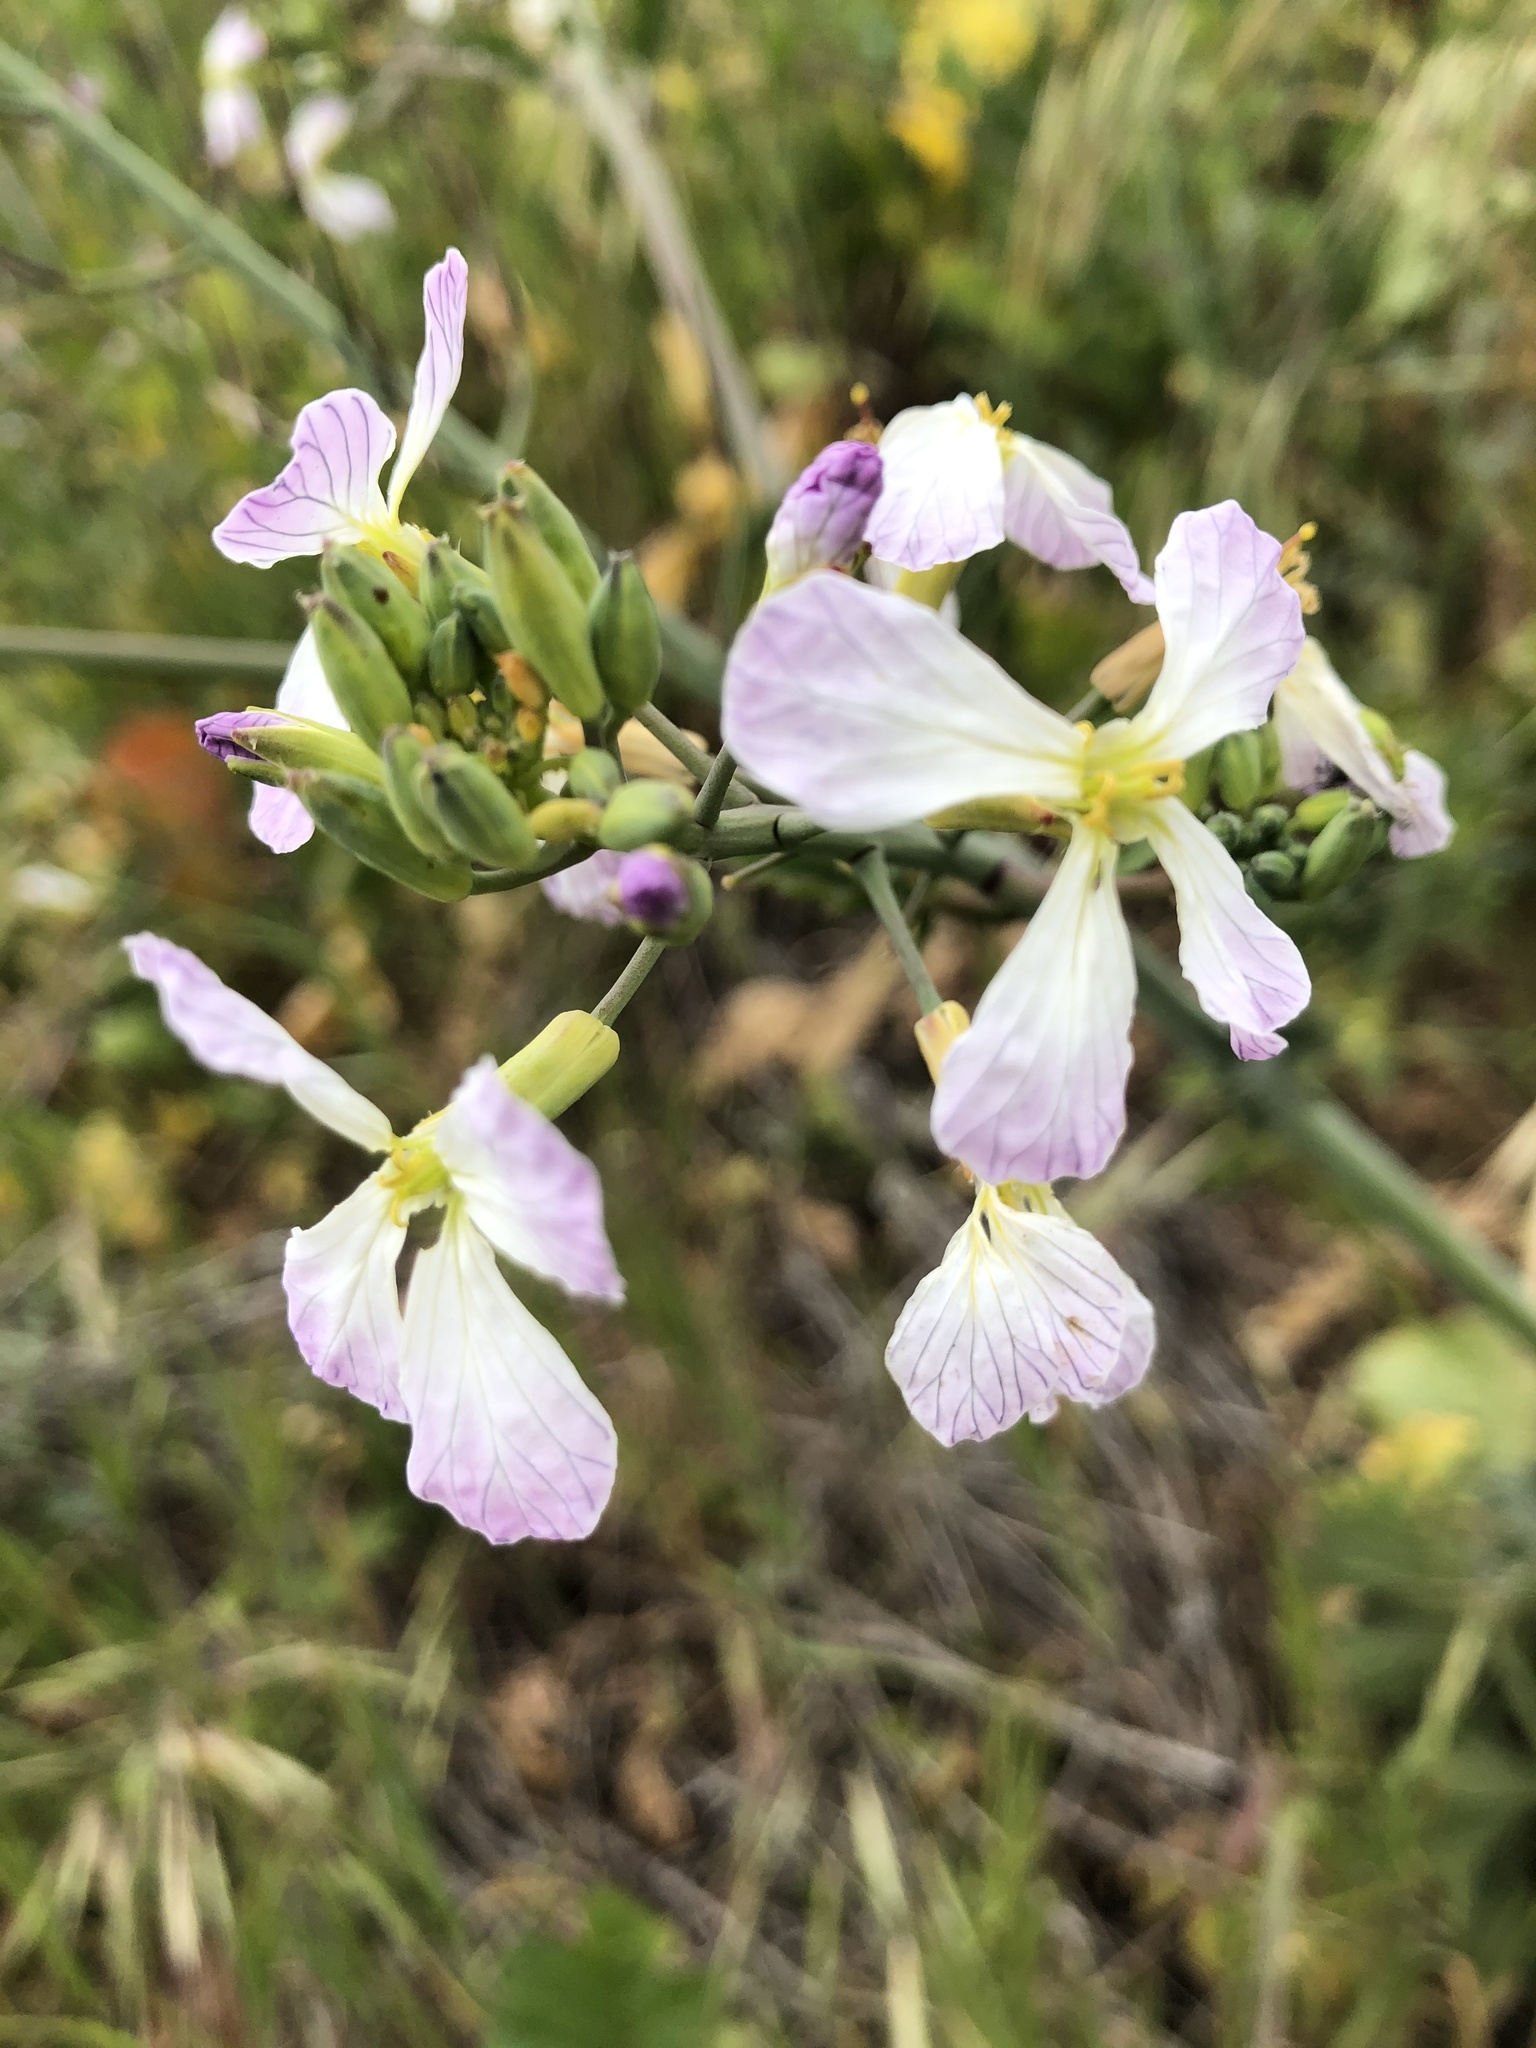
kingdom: Plantae
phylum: Tracheophyta
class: Magnoliopsida
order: Brassicales
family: Brassicaceae
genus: Raphanus
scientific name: Raphanus sativus
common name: Cultivated radish
